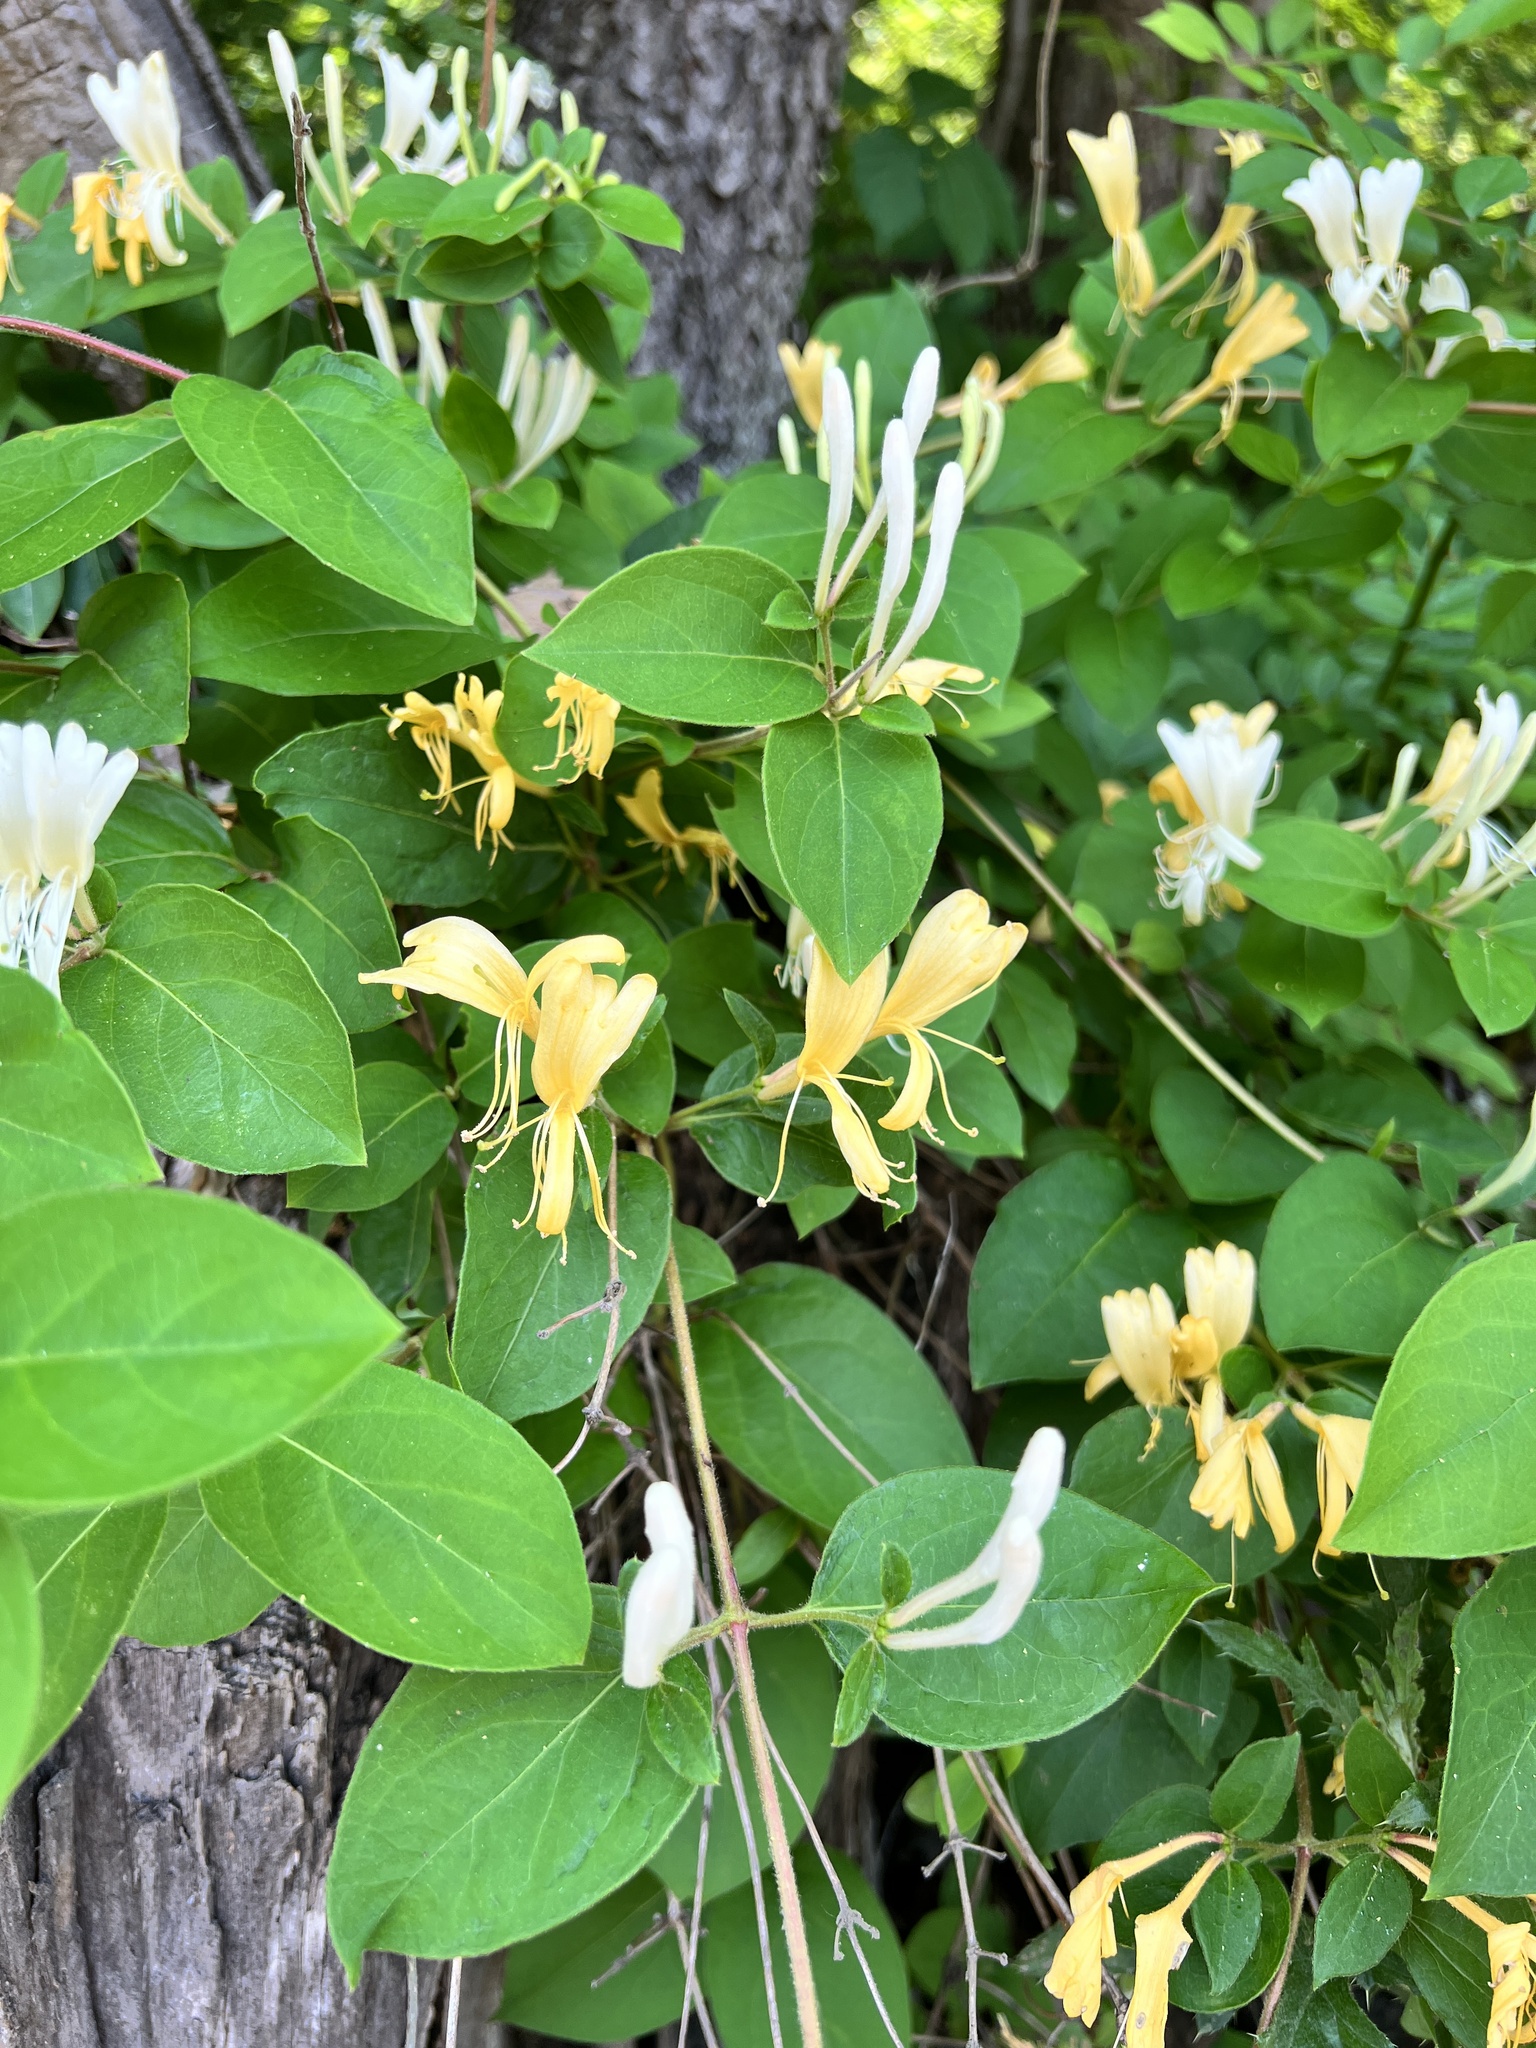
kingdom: Plantae
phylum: Tracheophyta
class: Magnoliopsida
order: Dipsacales
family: Caprifoliaceae
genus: Lonicera
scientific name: Lonicera japonica
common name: Japanese honeysuckle
